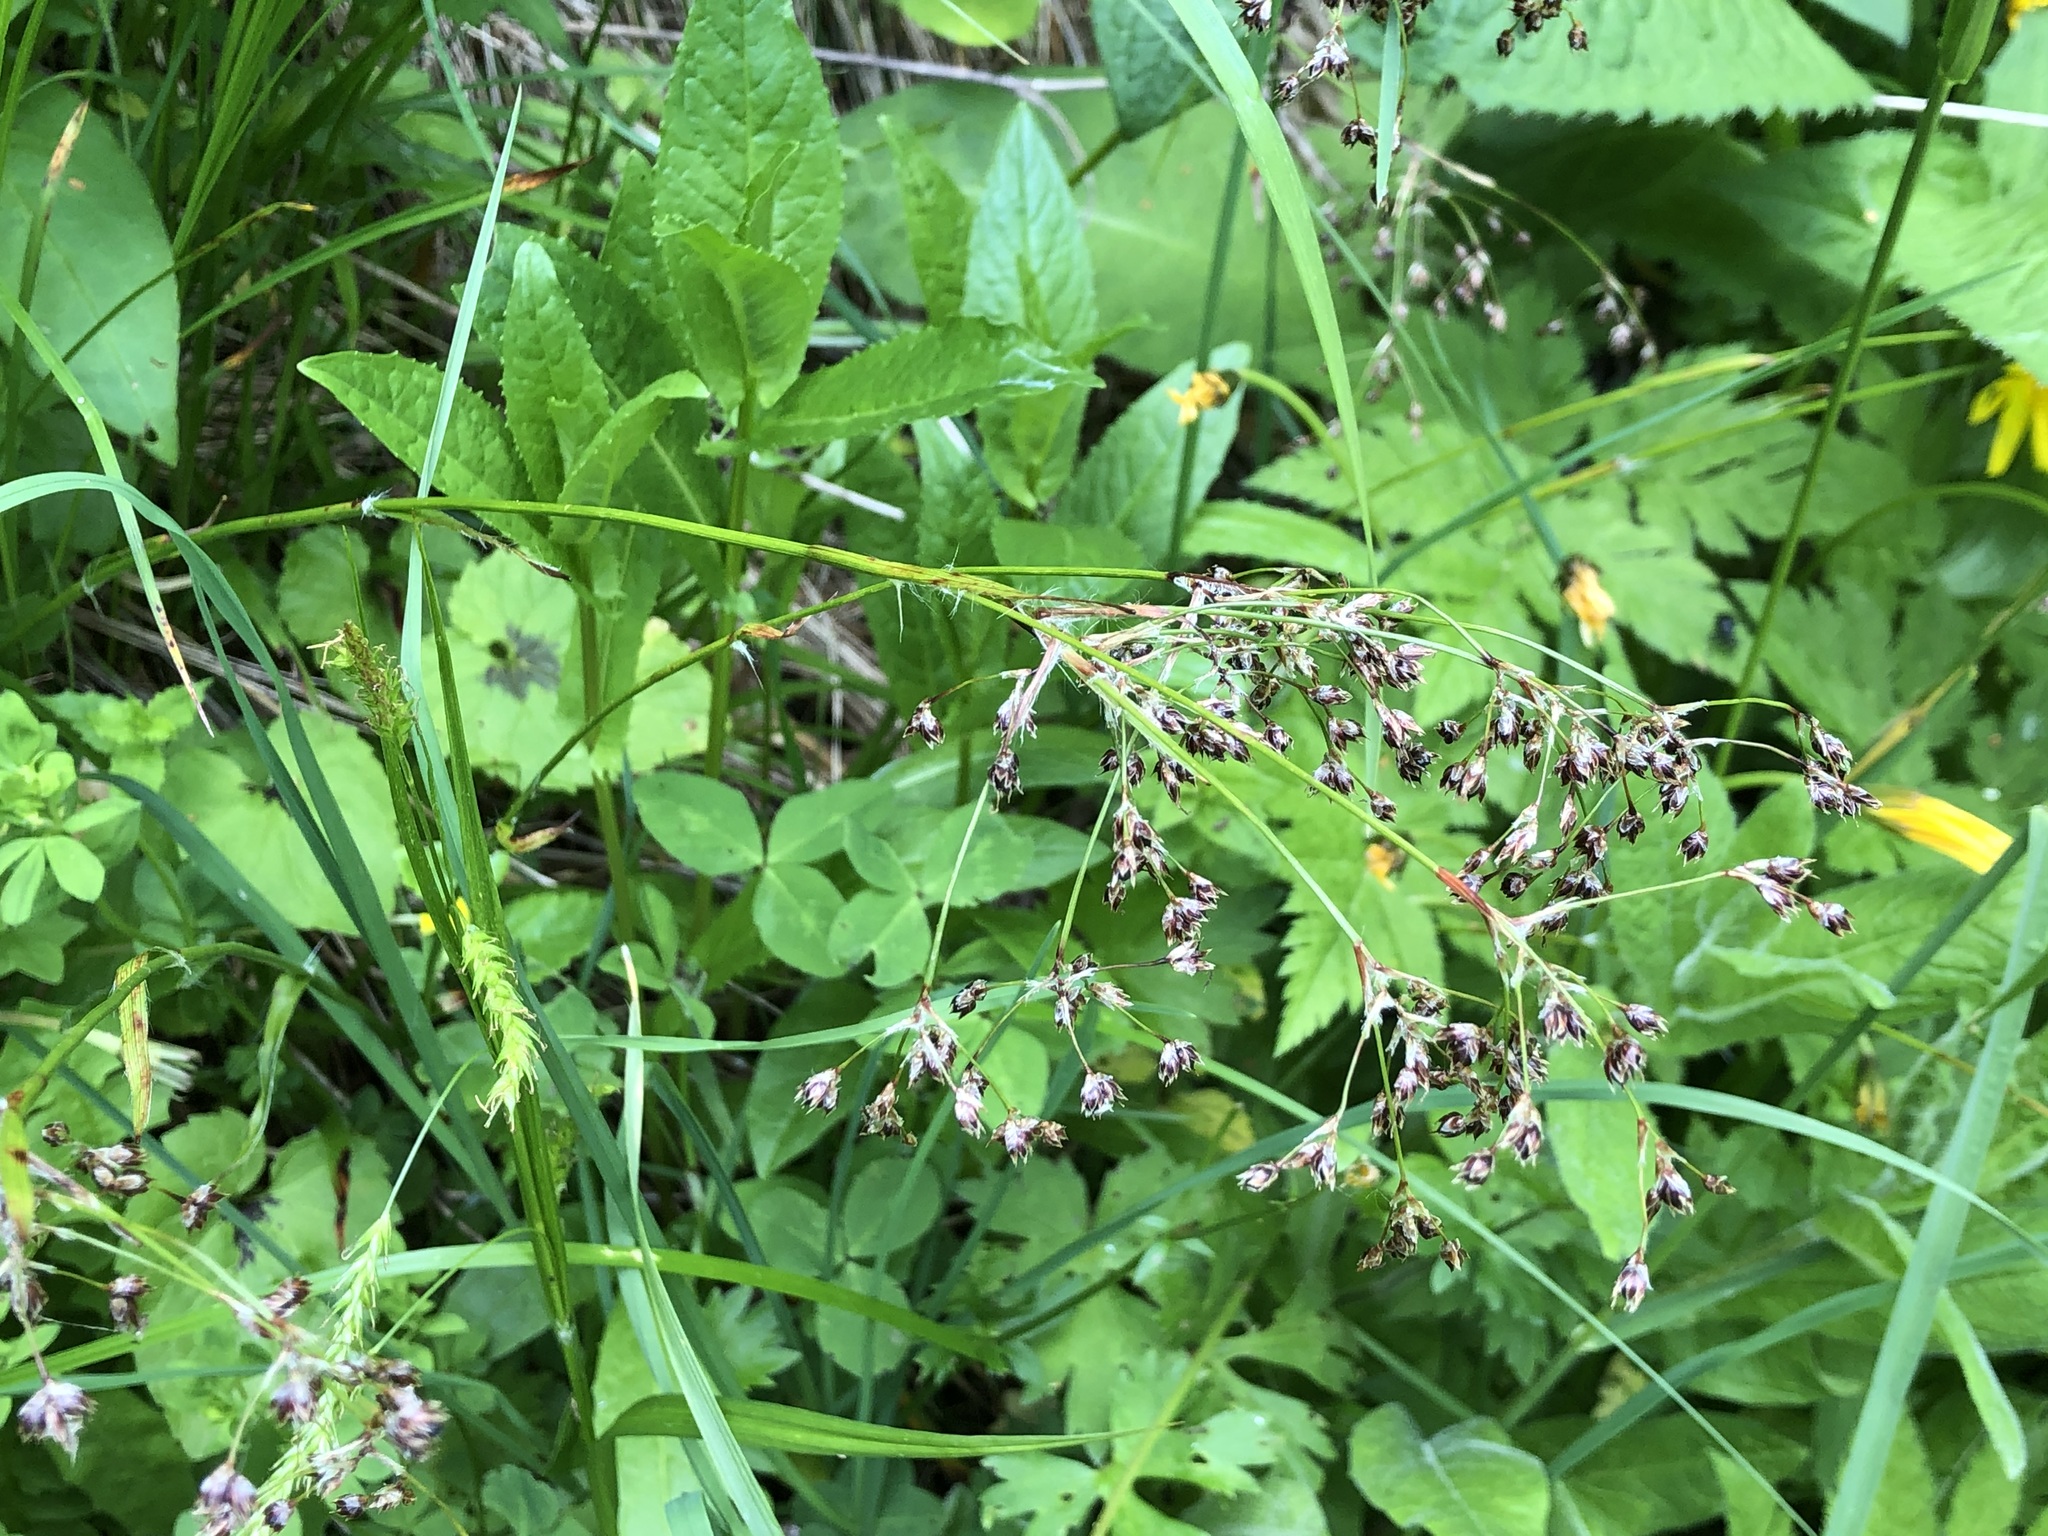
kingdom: Plantae
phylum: Tracheophyta
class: Liliopsida
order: Poales
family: Juncaceae
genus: Luzula
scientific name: Luzula sylvatica
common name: Great wood-rush
